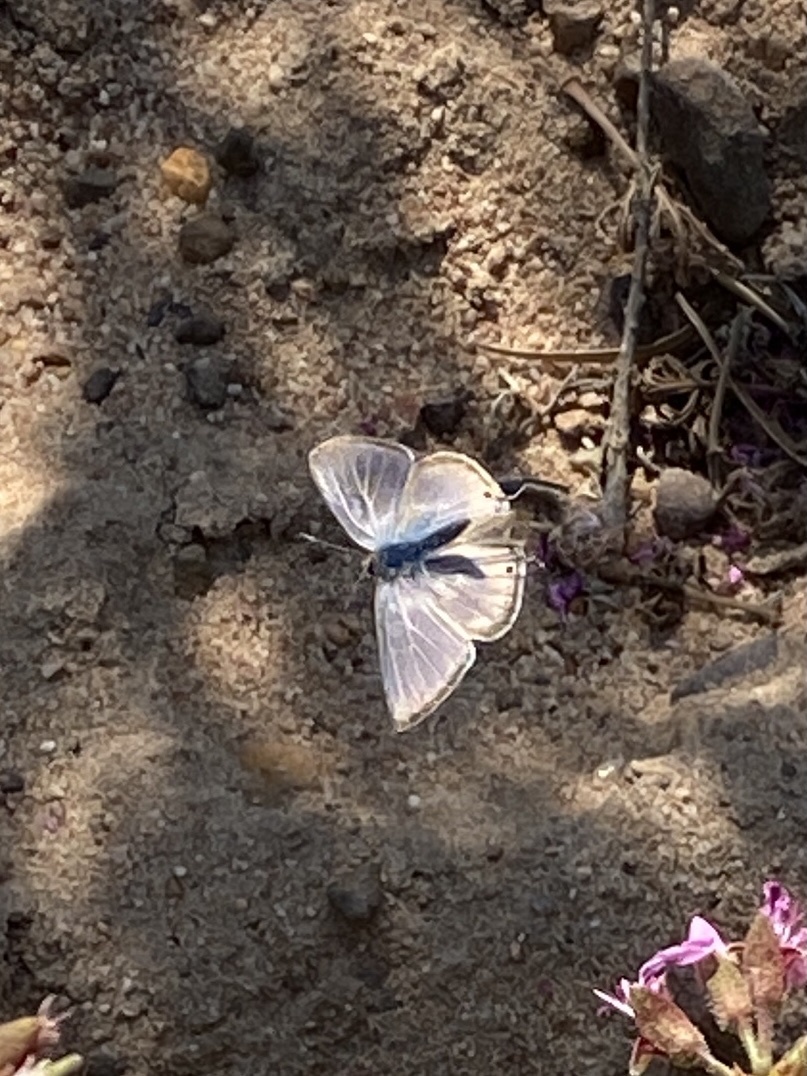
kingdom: Animalia
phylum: Arthropoda
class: Insecta
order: Lepidoptera
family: Lycaenidae
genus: Lampides
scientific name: Lampides boeticus
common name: Long-tailed blue
